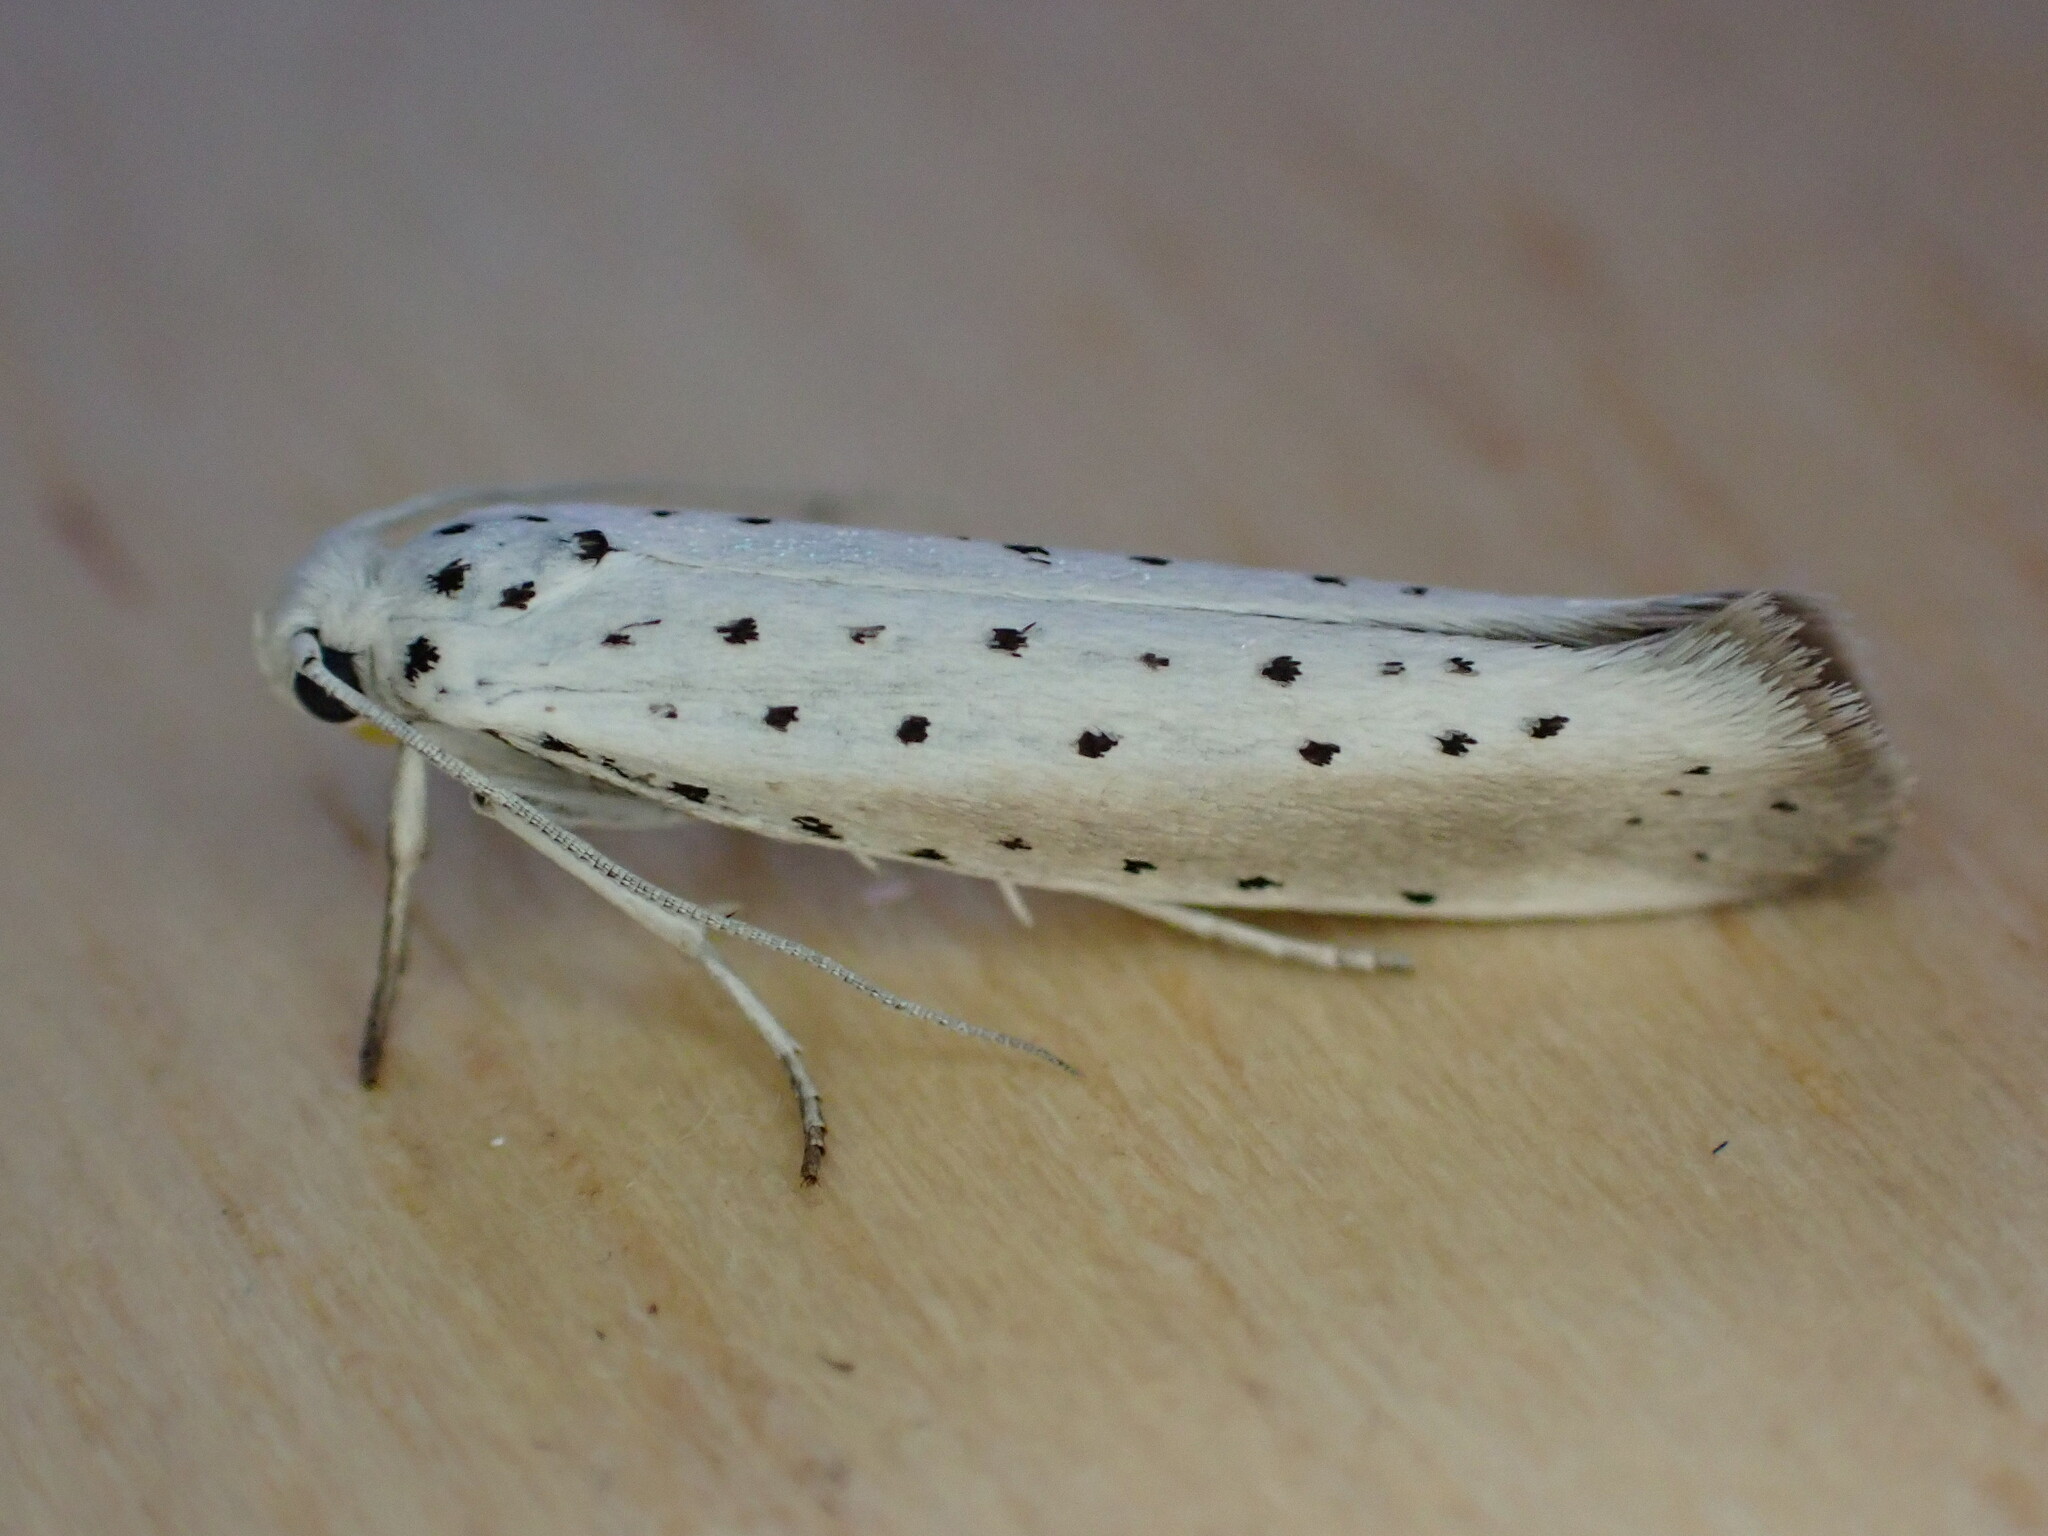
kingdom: Animalia
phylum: Arthropoda
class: Insecta
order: Lepidoptera
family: Yponomeutidae
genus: Yponomeuta
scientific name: Yponomeuta padella
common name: Orchard ermine
